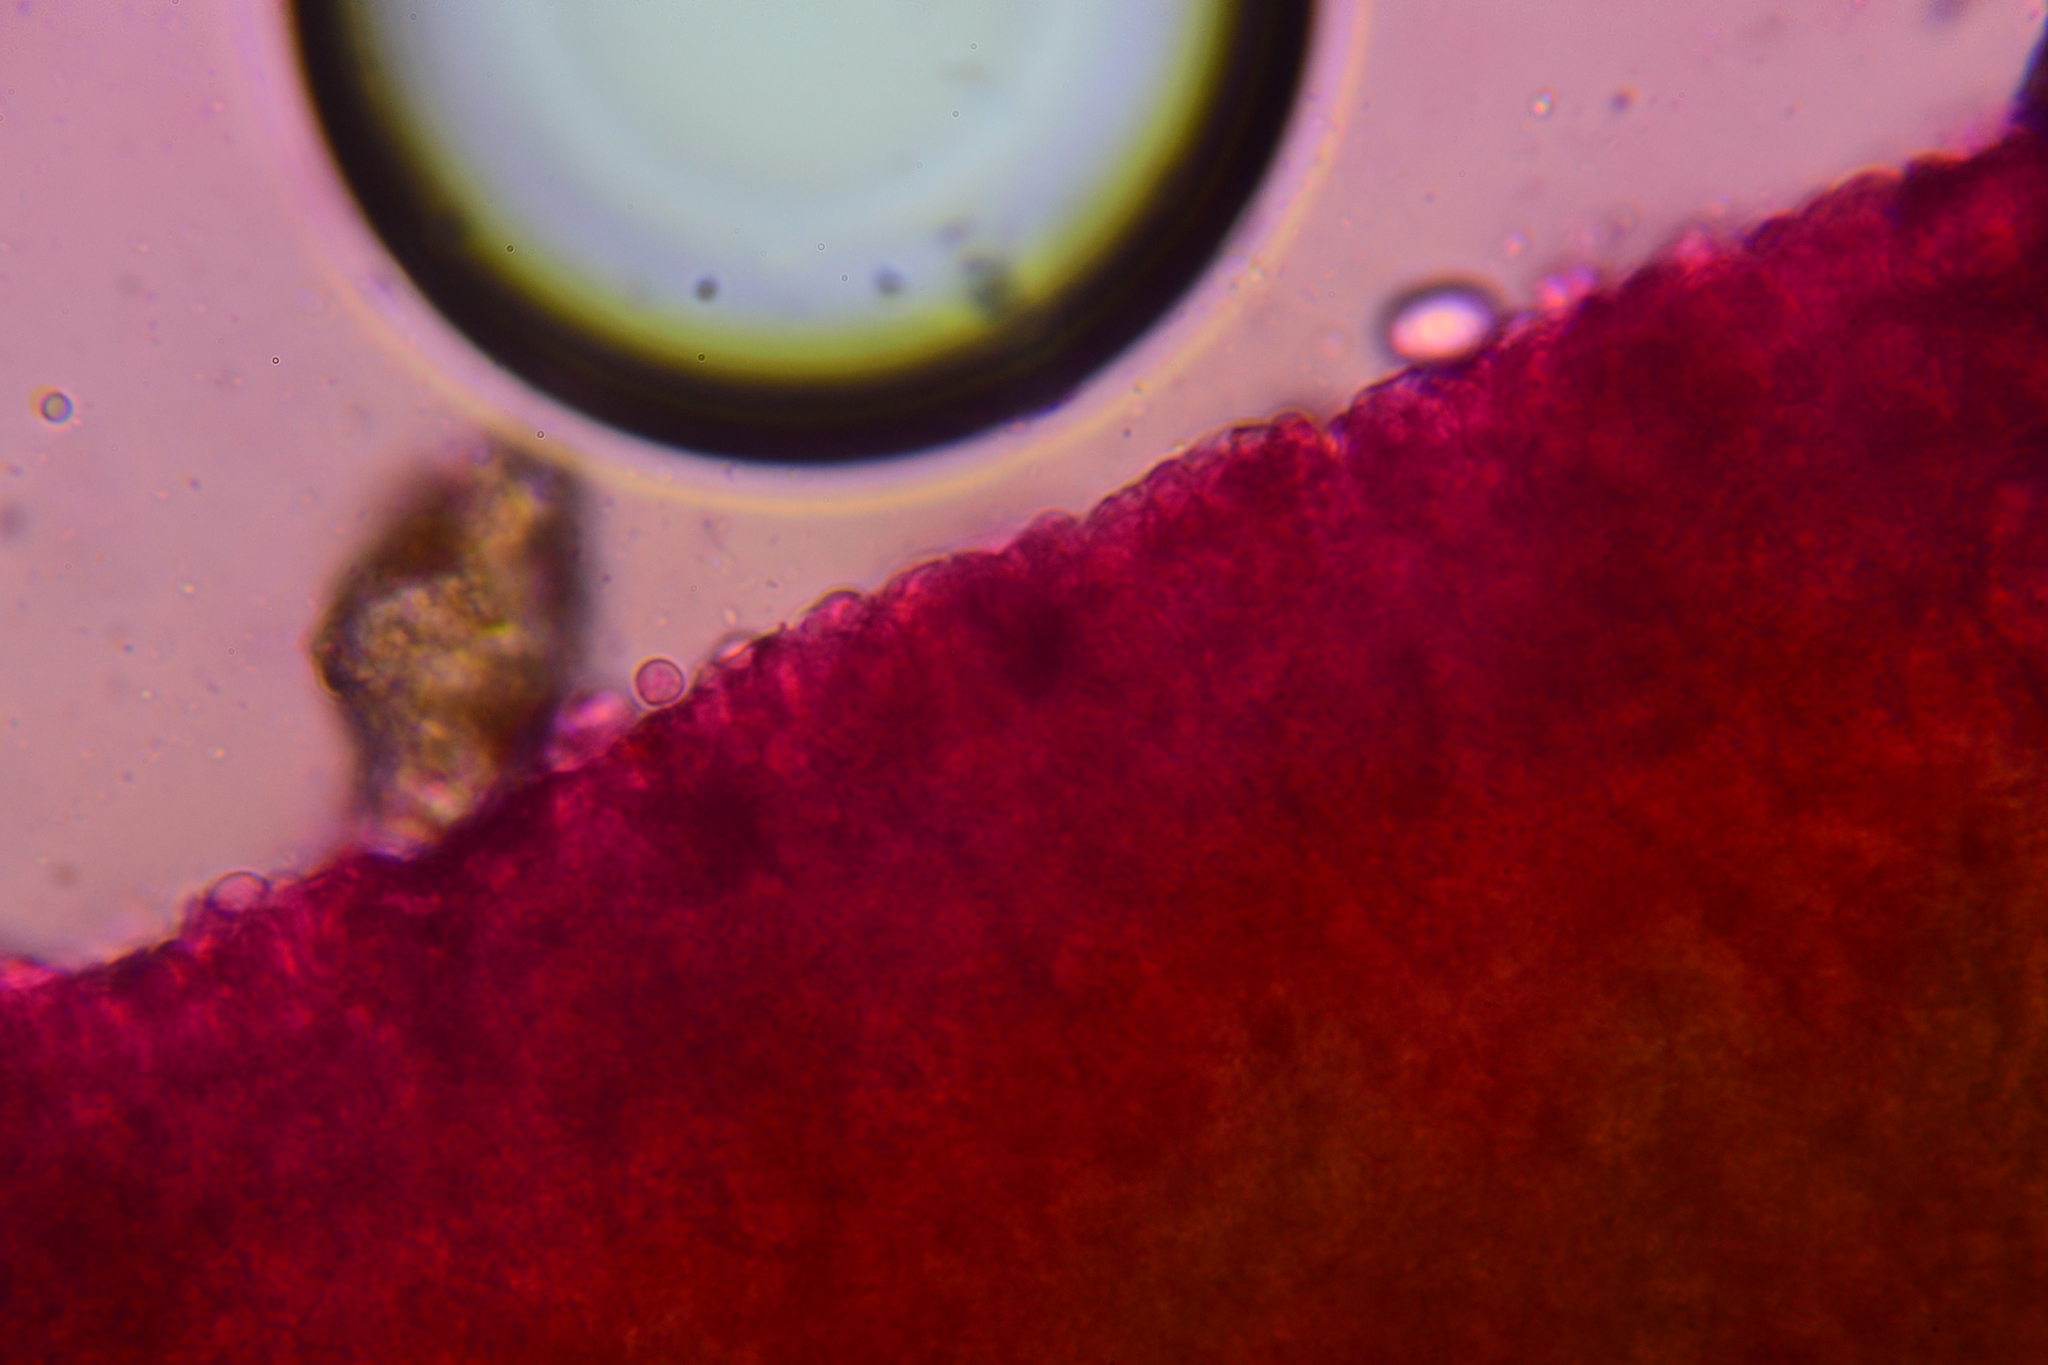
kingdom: Fungi
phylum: Basidiomycota
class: Agaricomycetes
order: Agaricales
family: Hygrophoraceae
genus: Neohygrocybe
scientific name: Neohygrocybe ovina
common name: Blushing waxcap
